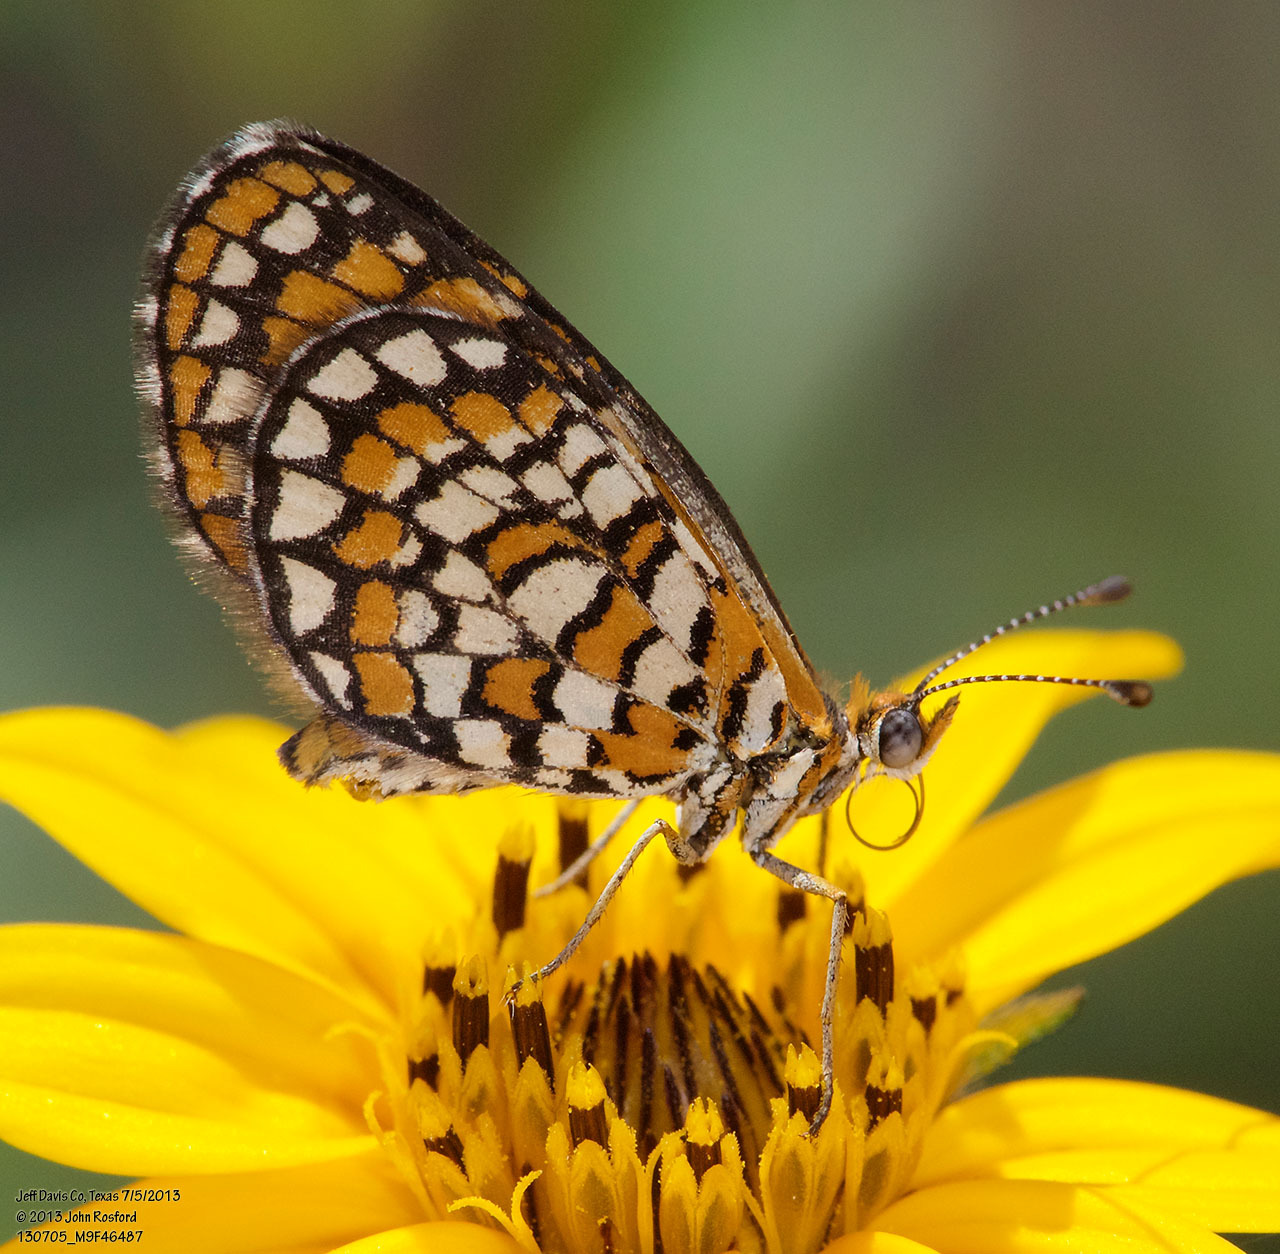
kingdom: Animalia
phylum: Arthropoda
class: Insecta
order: Lepidoptera
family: Nymphalidae
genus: Dymasia
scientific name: Dymasia dymas
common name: Tiny checkerspot
